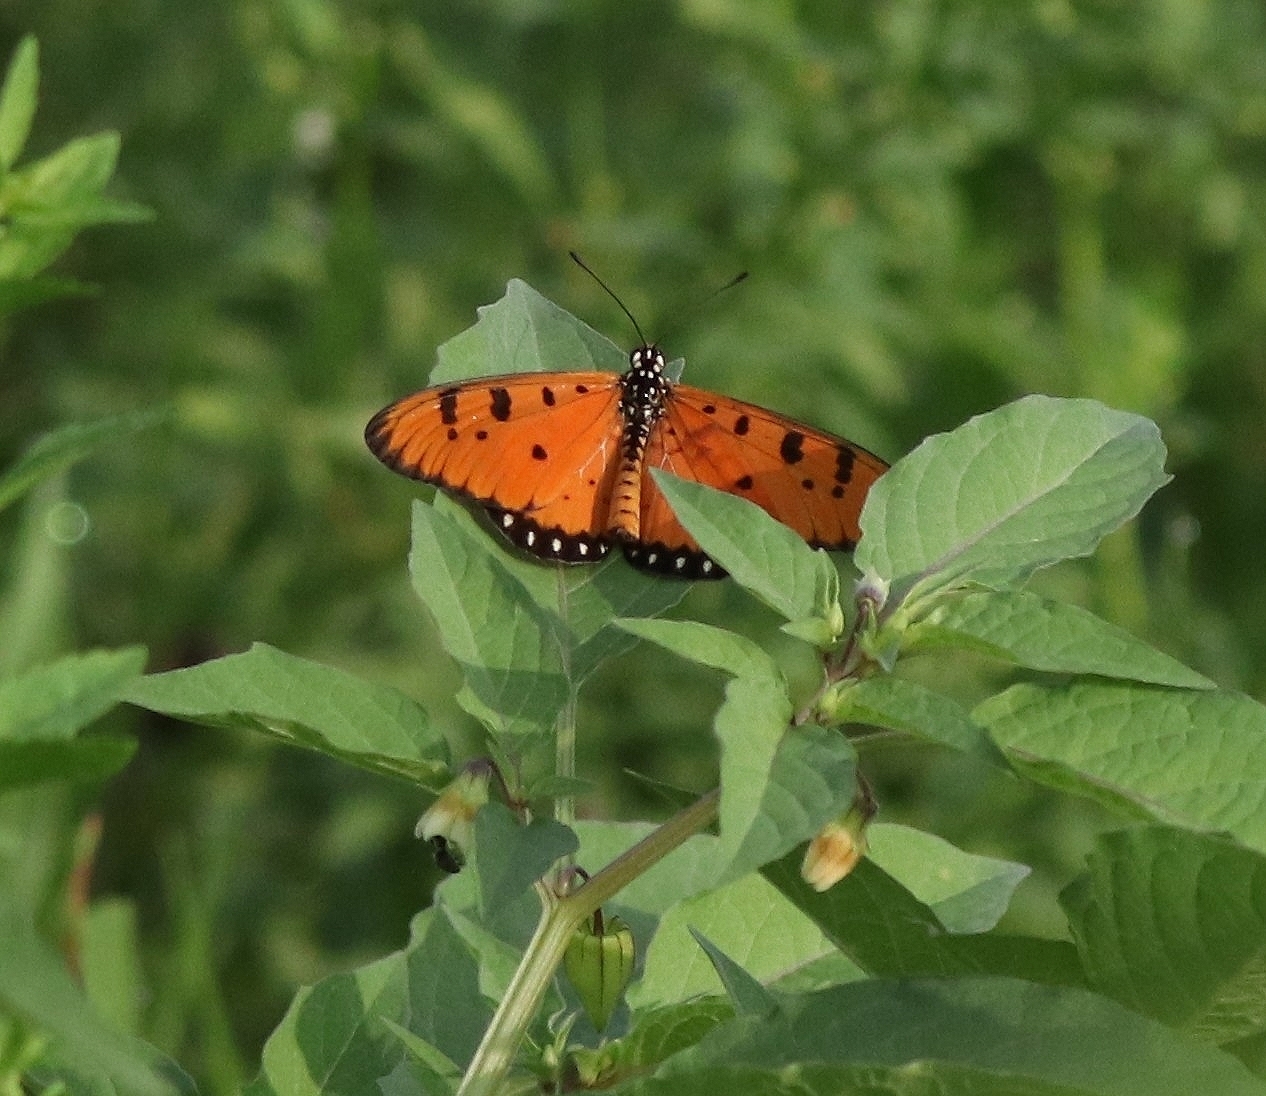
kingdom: Animalia
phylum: Arthropoda
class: Insecta
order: Lepidoptera
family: Nymphalidae
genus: Acraea
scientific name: Acraea terpsicore
